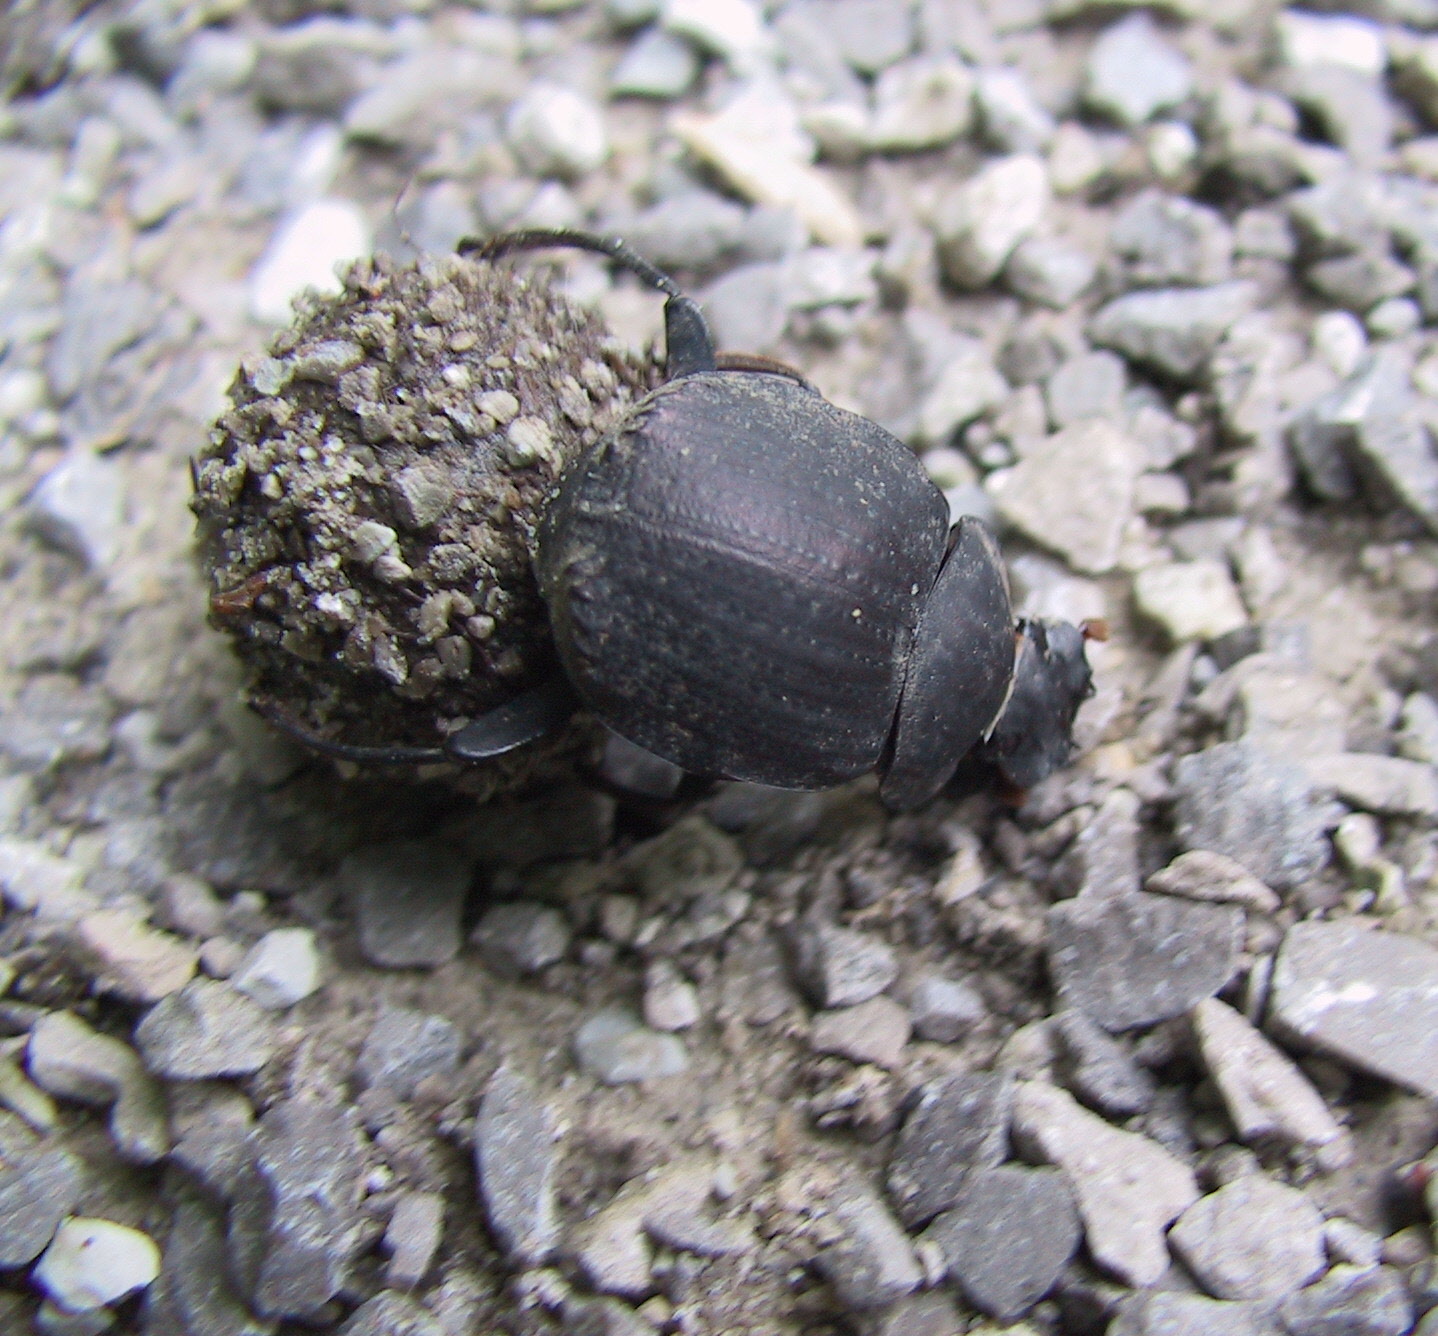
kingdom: Animalia
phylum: Arthropoda
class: Insecta
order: Coleoptera
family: Scarabaeidae
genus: Deltochilum
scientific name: Deltochilum gibbosum
